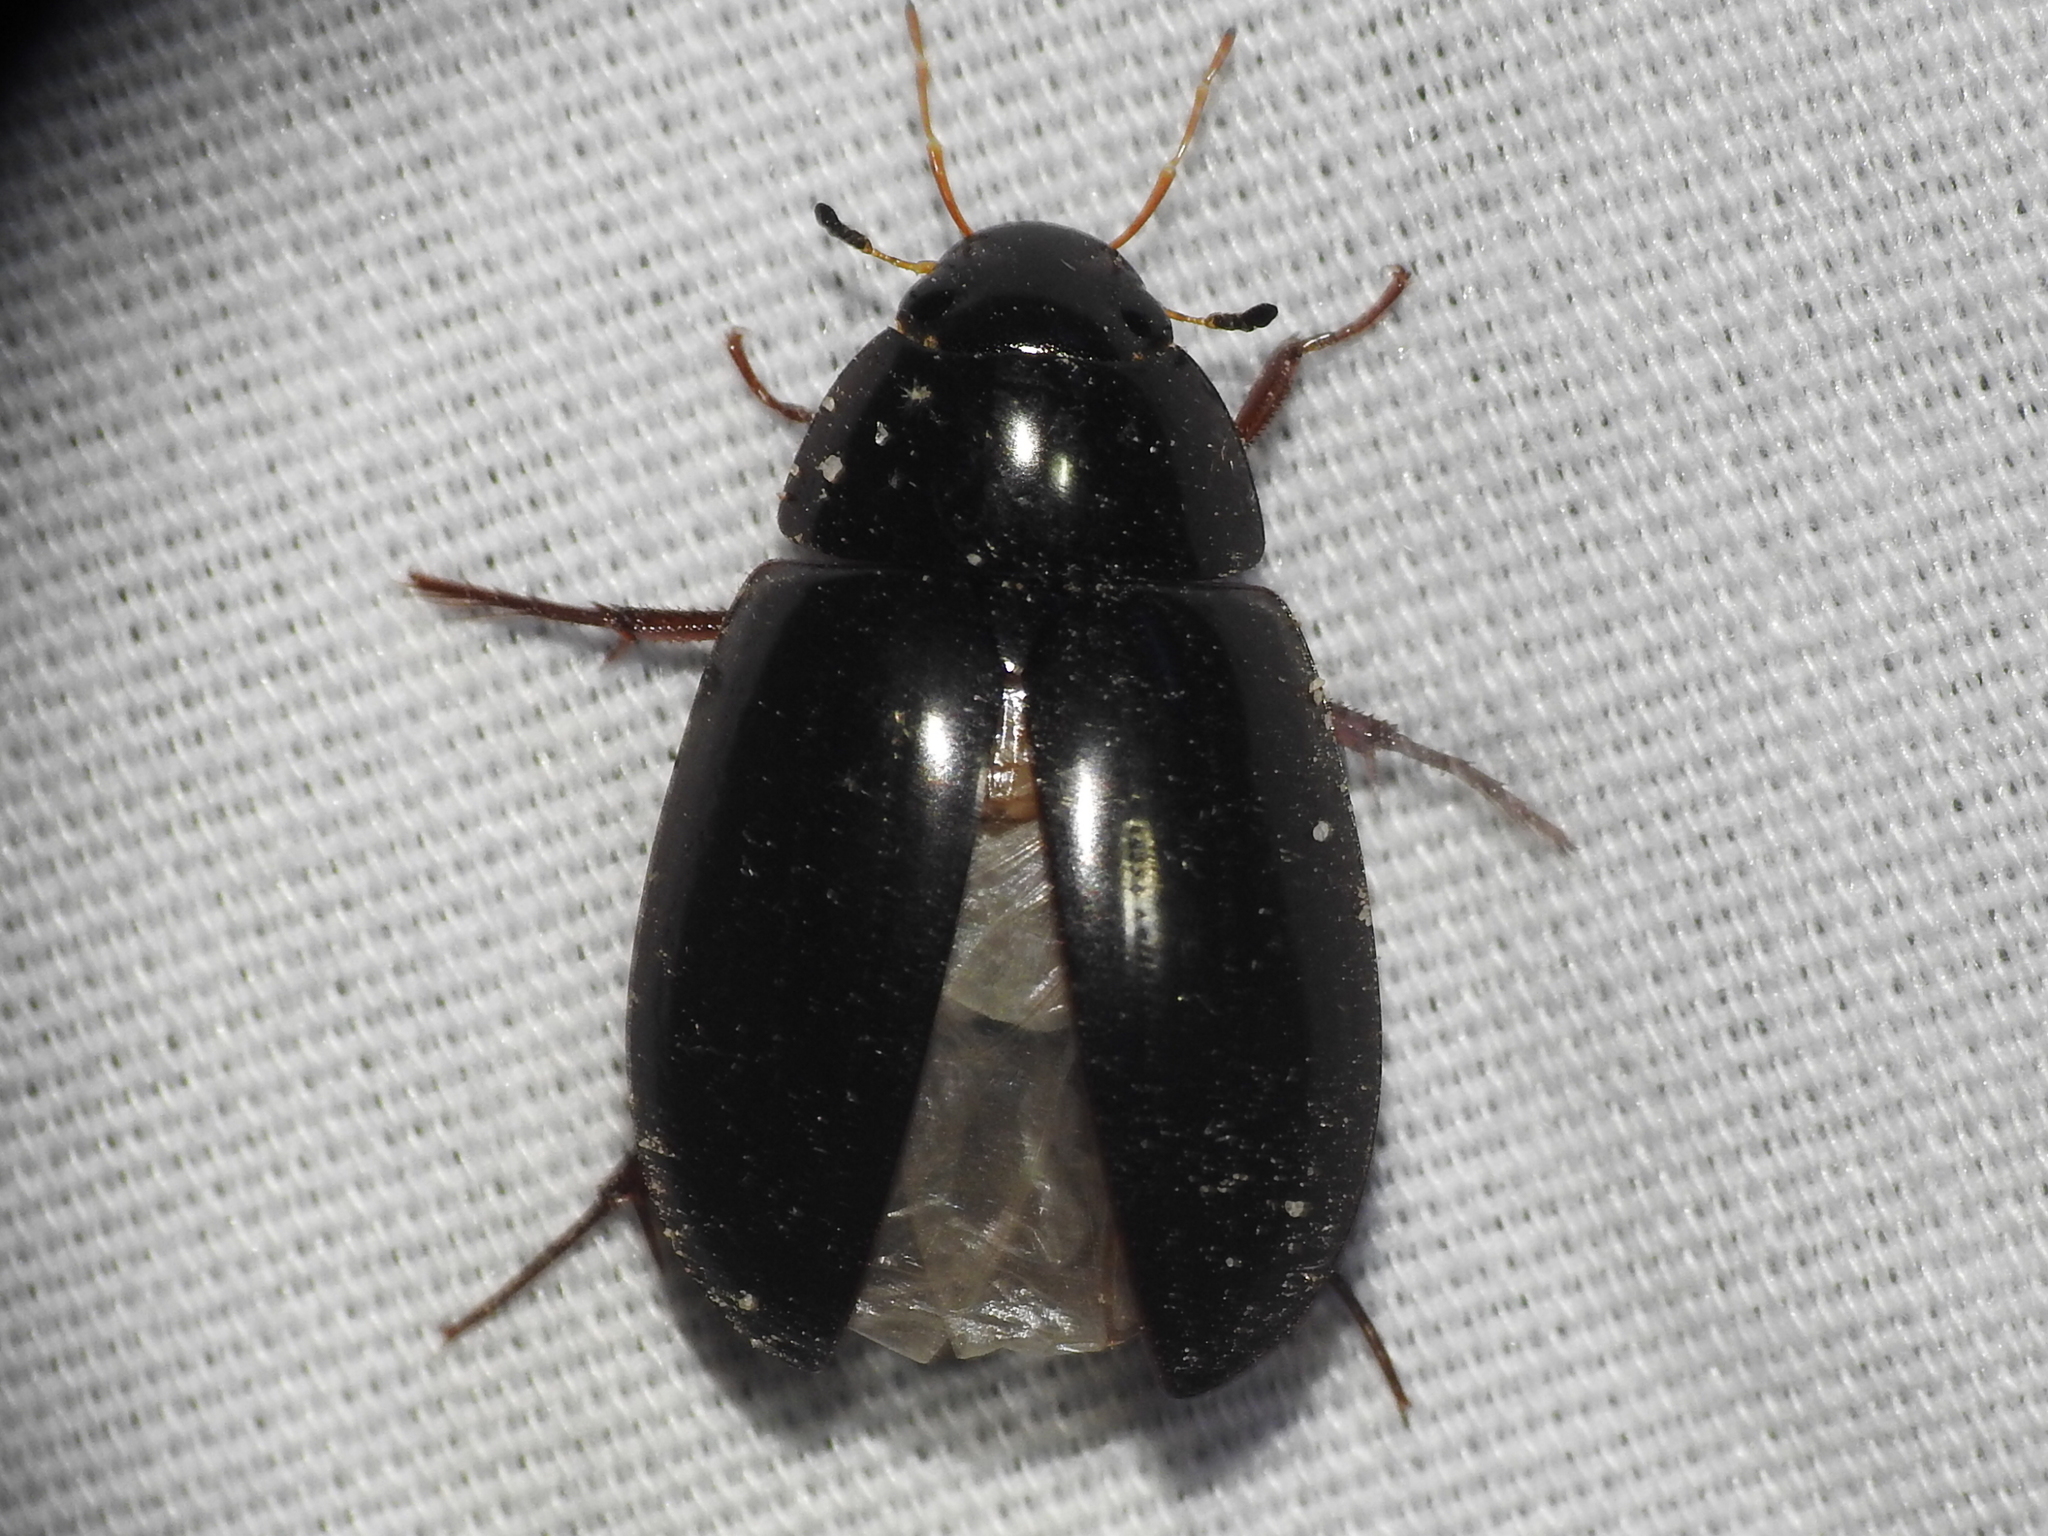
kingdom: Animalia
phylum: Arthropoda
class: Insecta
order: Coleoptera
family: Hydrophilidae
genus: Hydrochara
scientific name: Hydrochara
